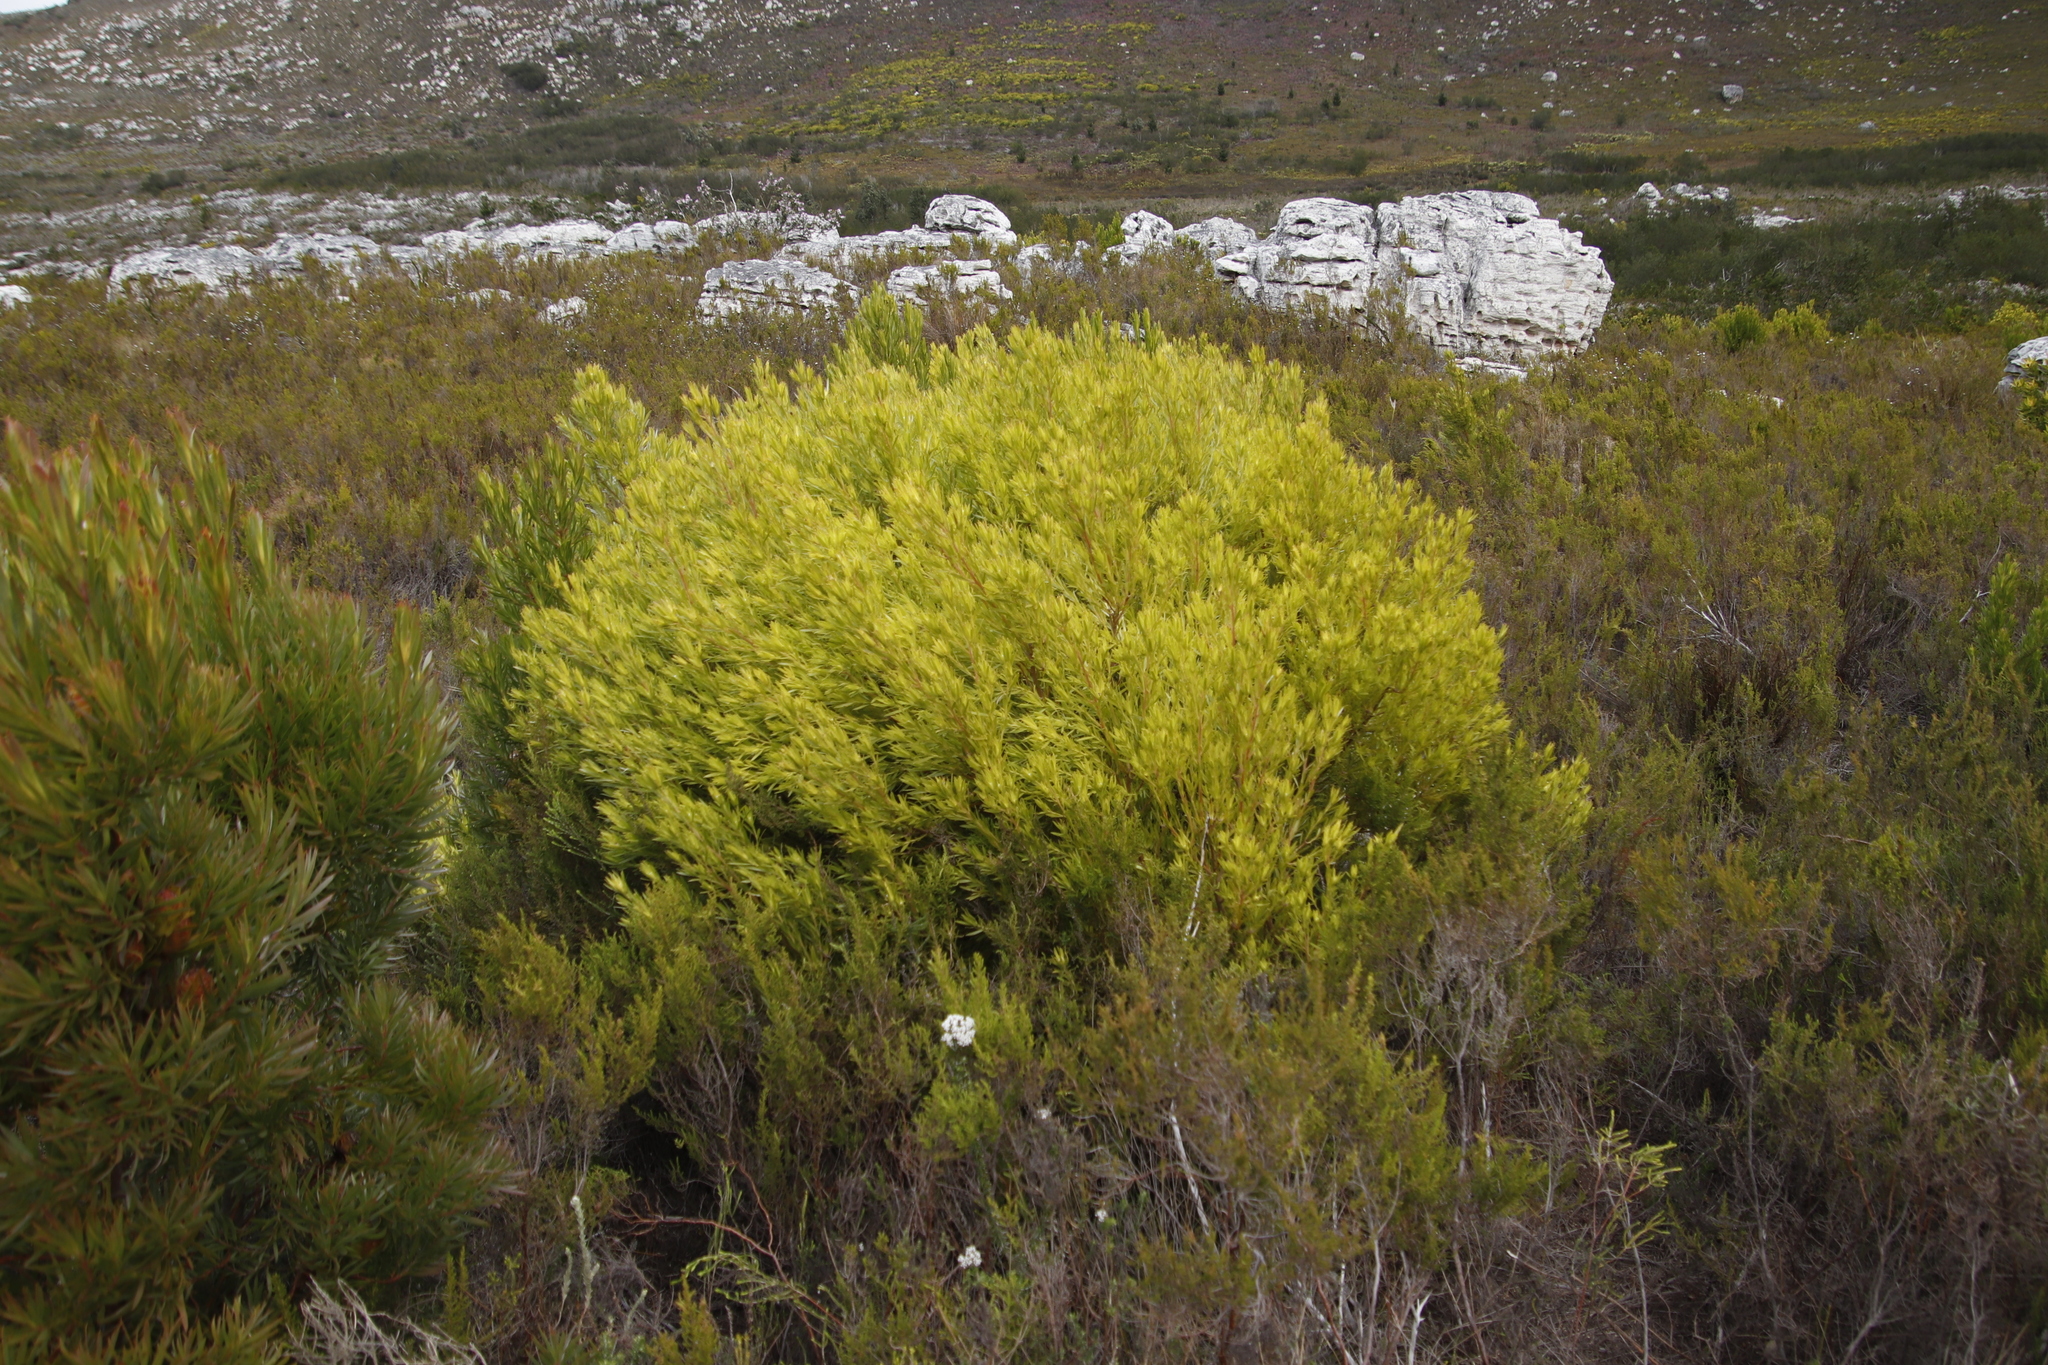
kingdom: Plantae
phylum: Tracheophyta
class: Magnoliopsida
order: Proteales
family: Proteaceae
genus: Leucadendron
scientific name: Leucadendron xanthoconus
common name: Sickle-leaf conebush
